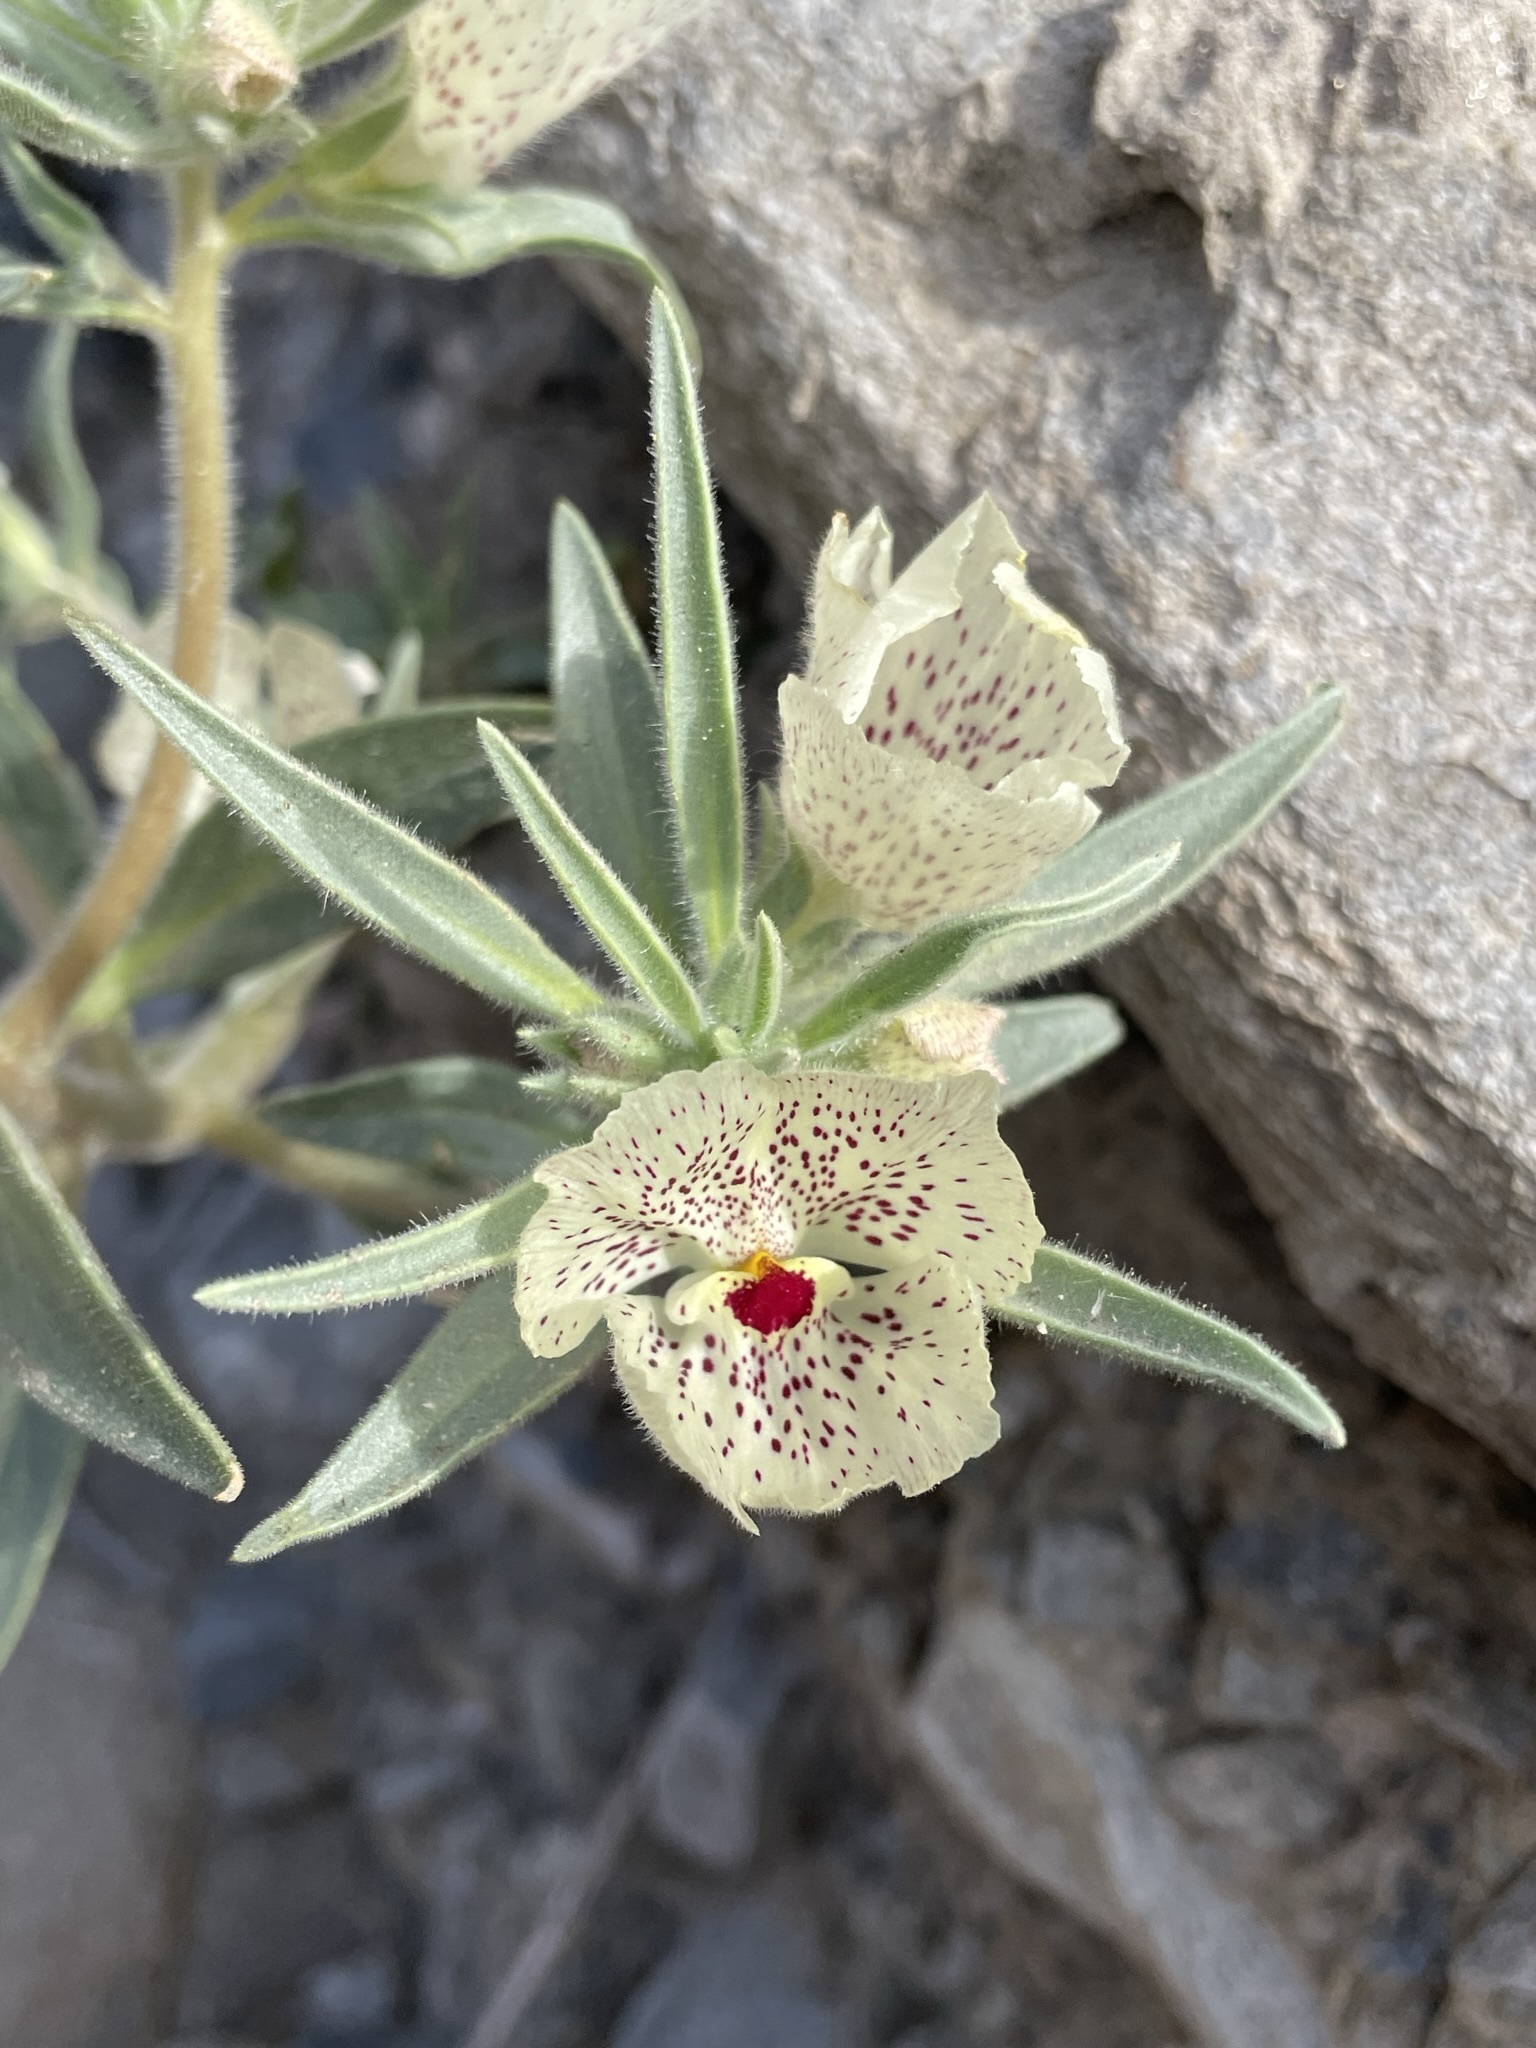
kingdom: Plantae
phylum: Tracheophyta
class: Magnoliopsida
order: Lamiales
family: Plantaginaceae
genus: Mohavea
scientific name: Mohavea confertiflora
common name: Ghost flower
